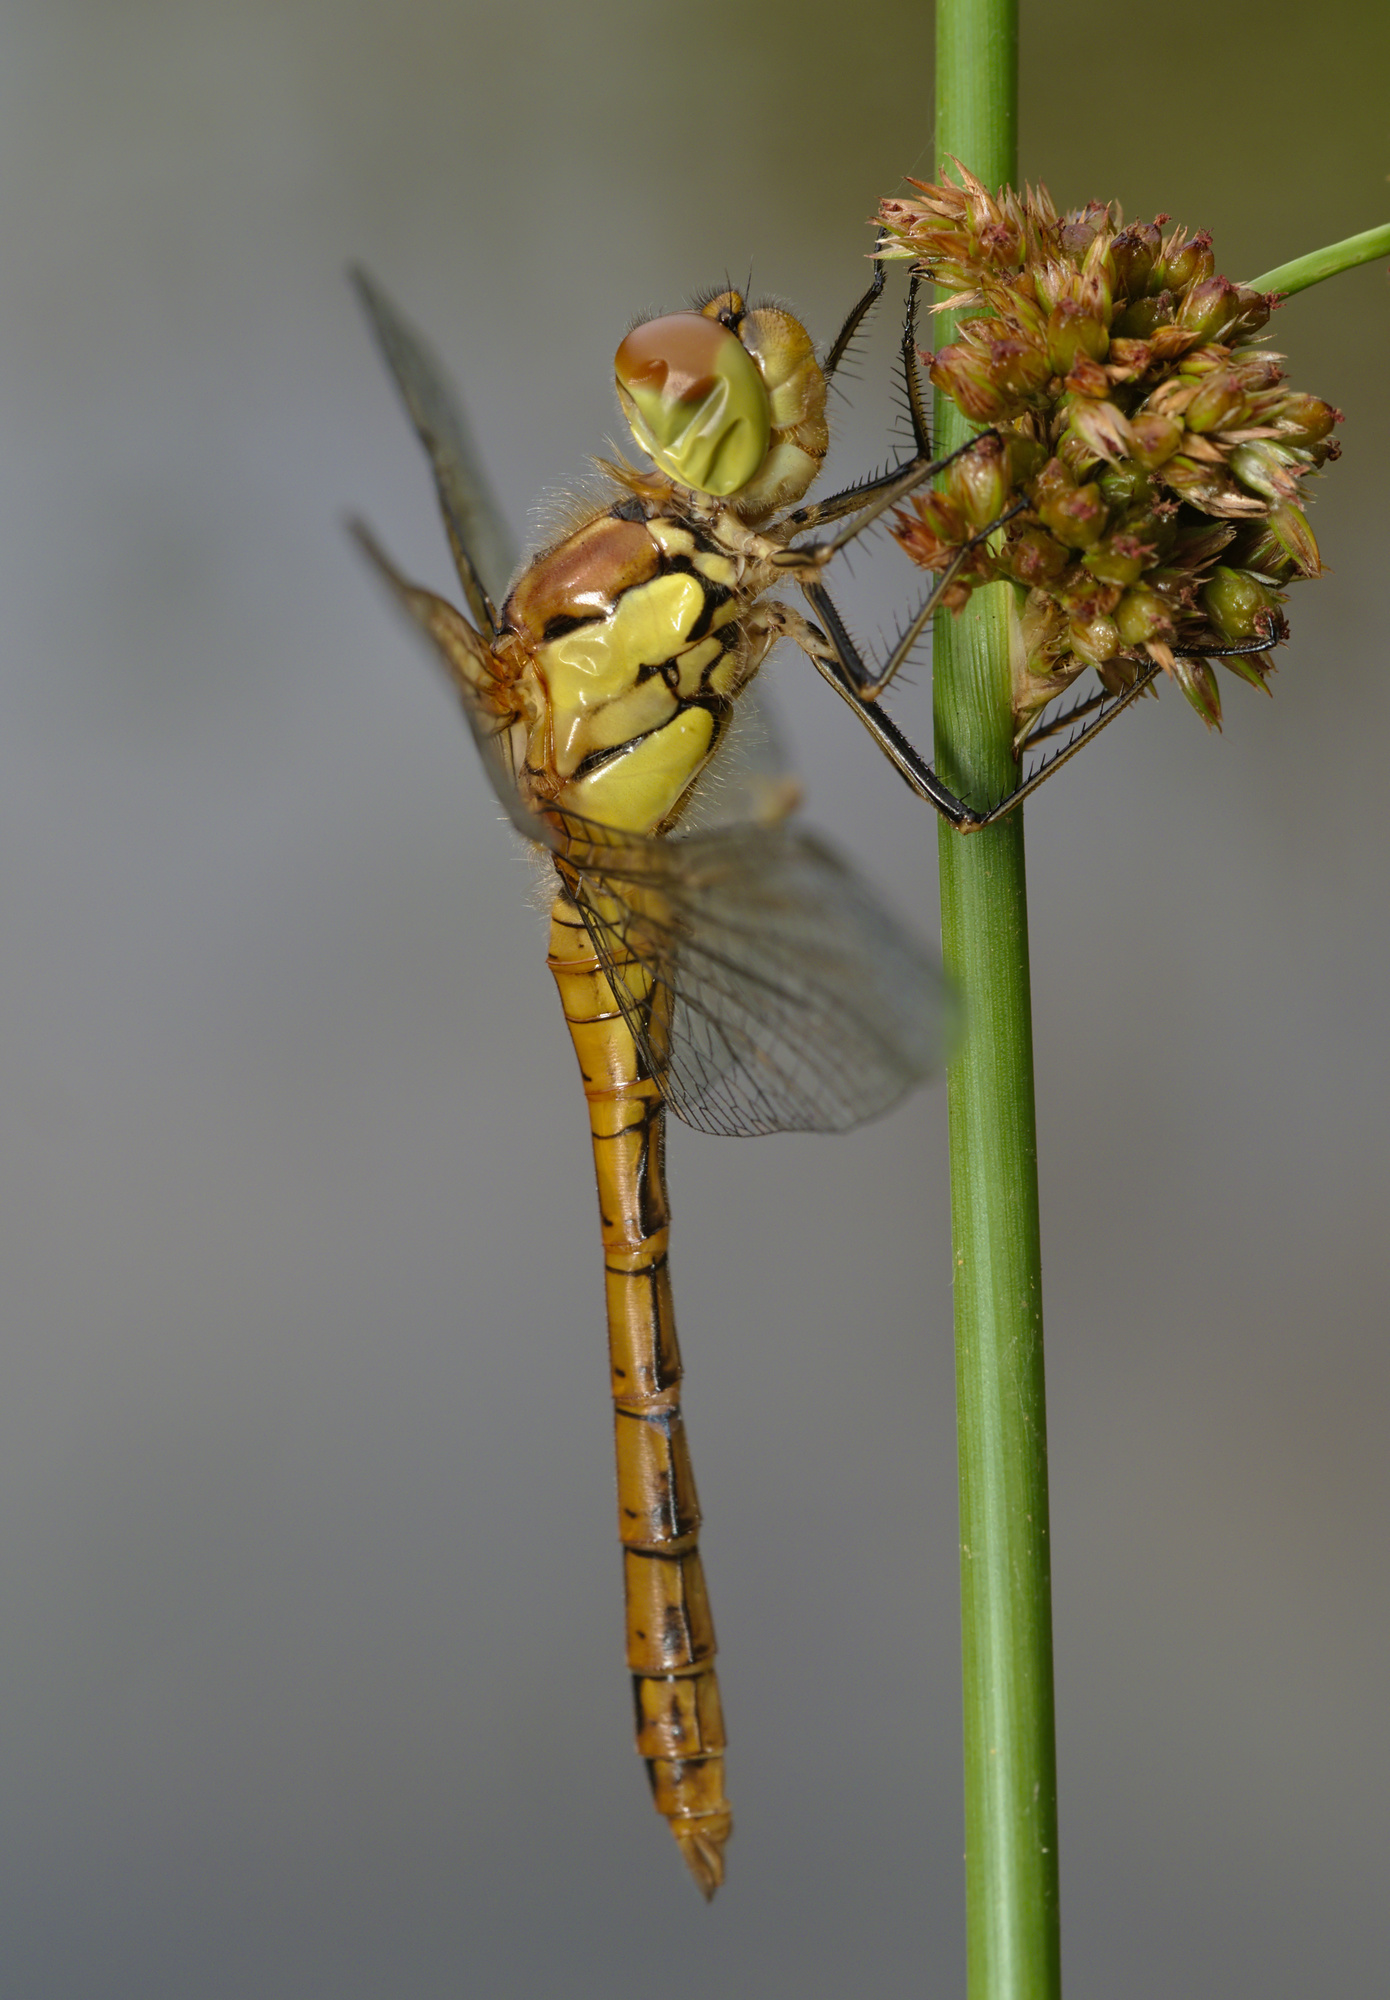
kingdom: Animalia
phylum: Arthropoda
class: Insecta
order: Odonata
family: Libellulidae
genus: Sympetrum
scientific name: Sympetrum striolatum
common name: Common darter
